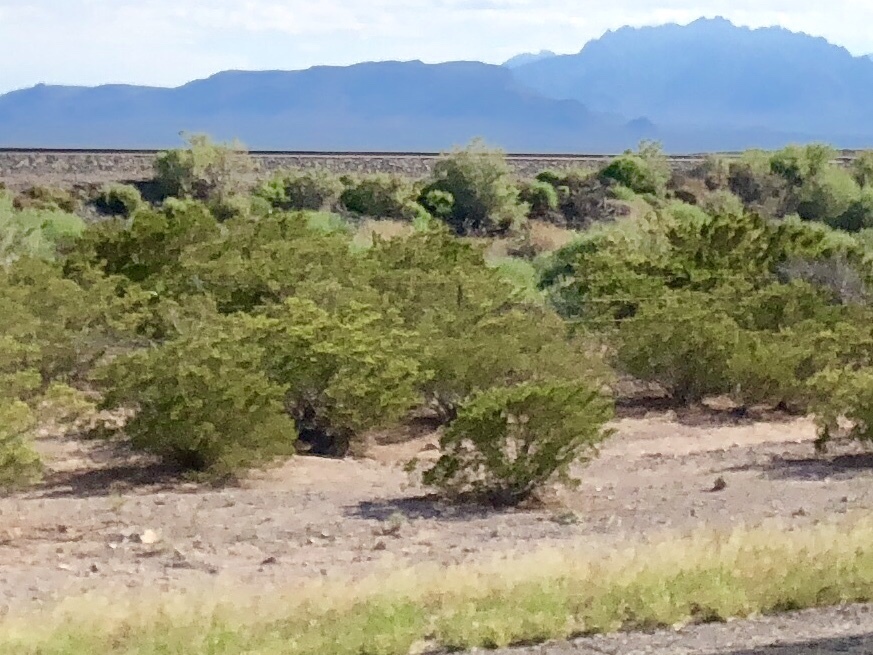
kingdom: Plantae
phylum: Tracheophyta
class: Magnoliopsida
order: Zygophyllales
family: Zygophyllaceae
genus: Larrea
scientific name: Larrea tridentata
